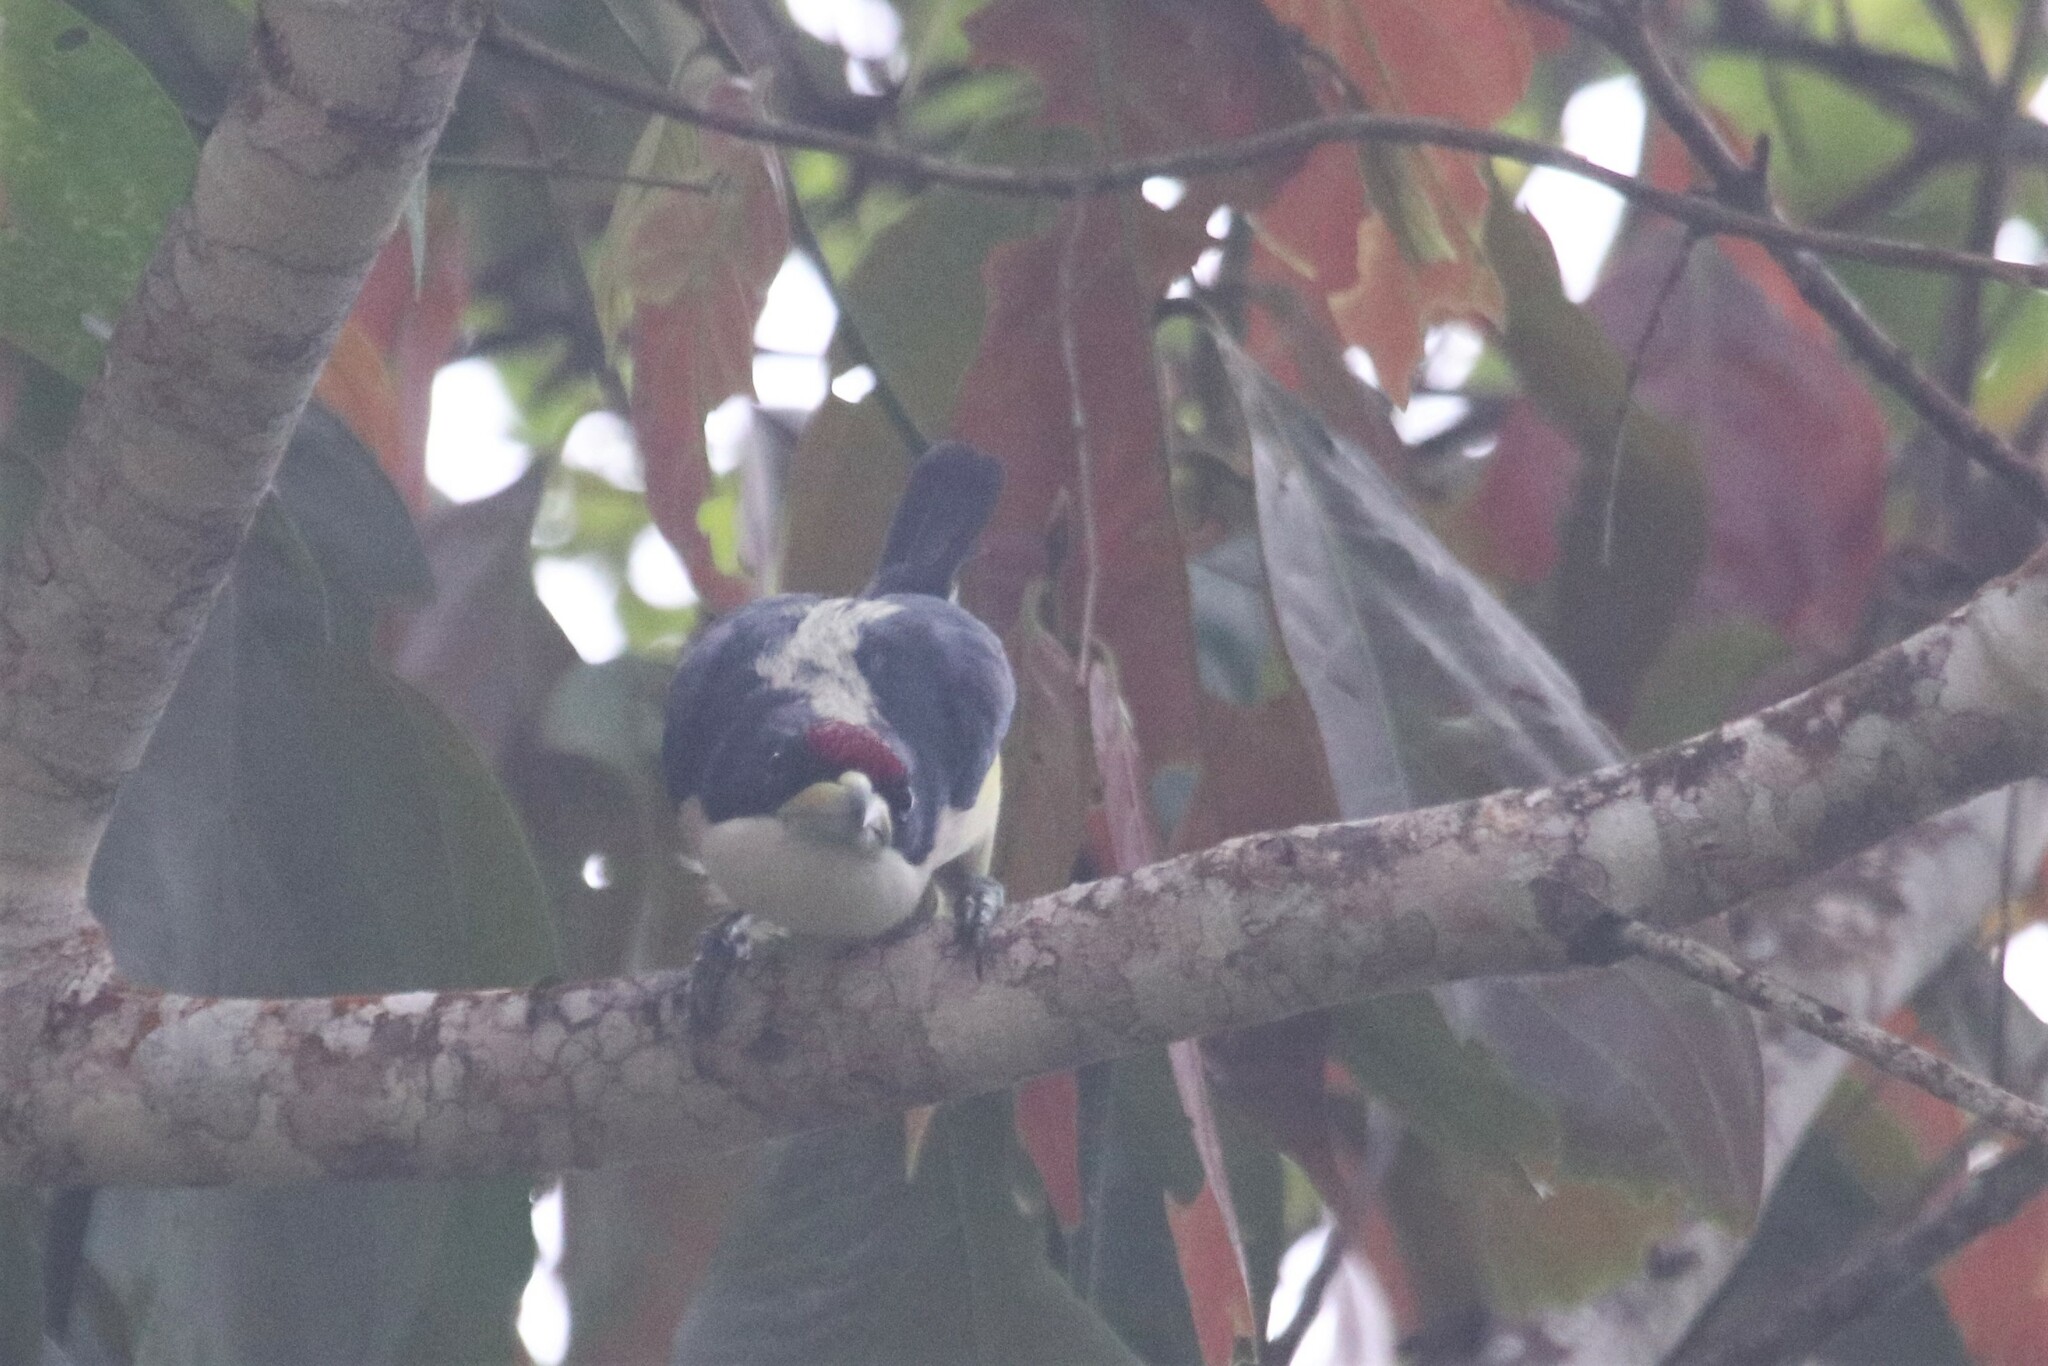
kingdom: Animalia
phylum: Chordata
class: Aves
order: Piciformes
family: Capitonidae
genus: Capito
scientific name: Capito hypoleucus
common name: White-mantled barbet
